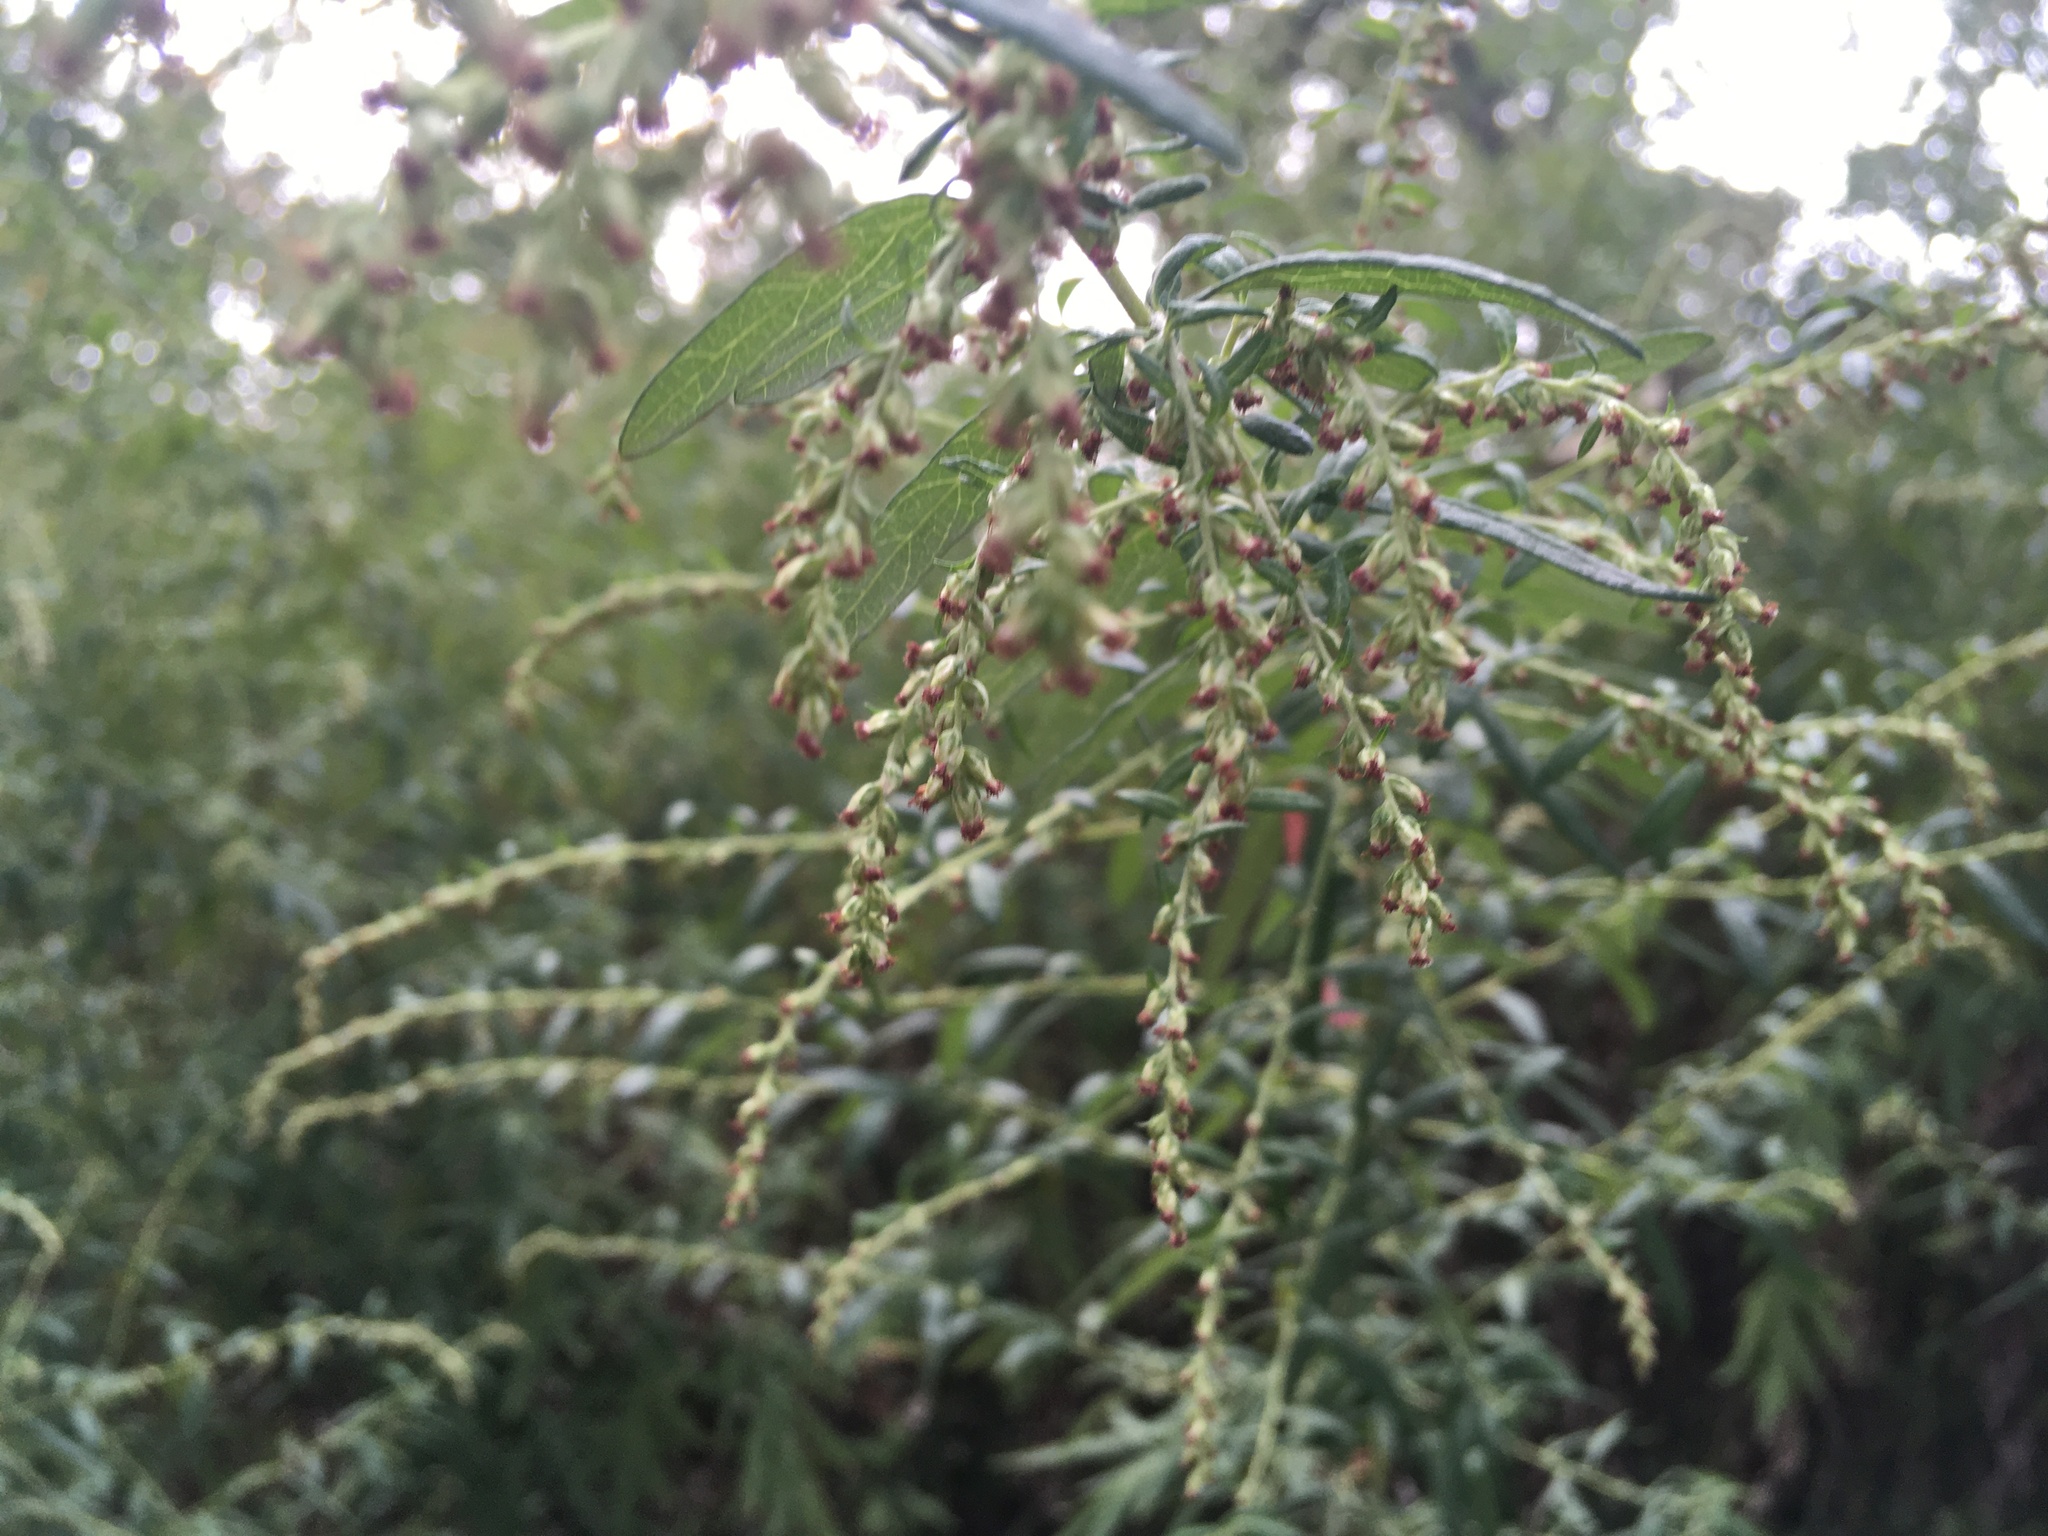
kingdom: Plantae
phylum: Tracheophyta
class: Magnoliopsida
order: Asterales
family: Asteraceae
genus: Artemisia
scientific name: Artemisia vulgaris
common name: Mugwort
